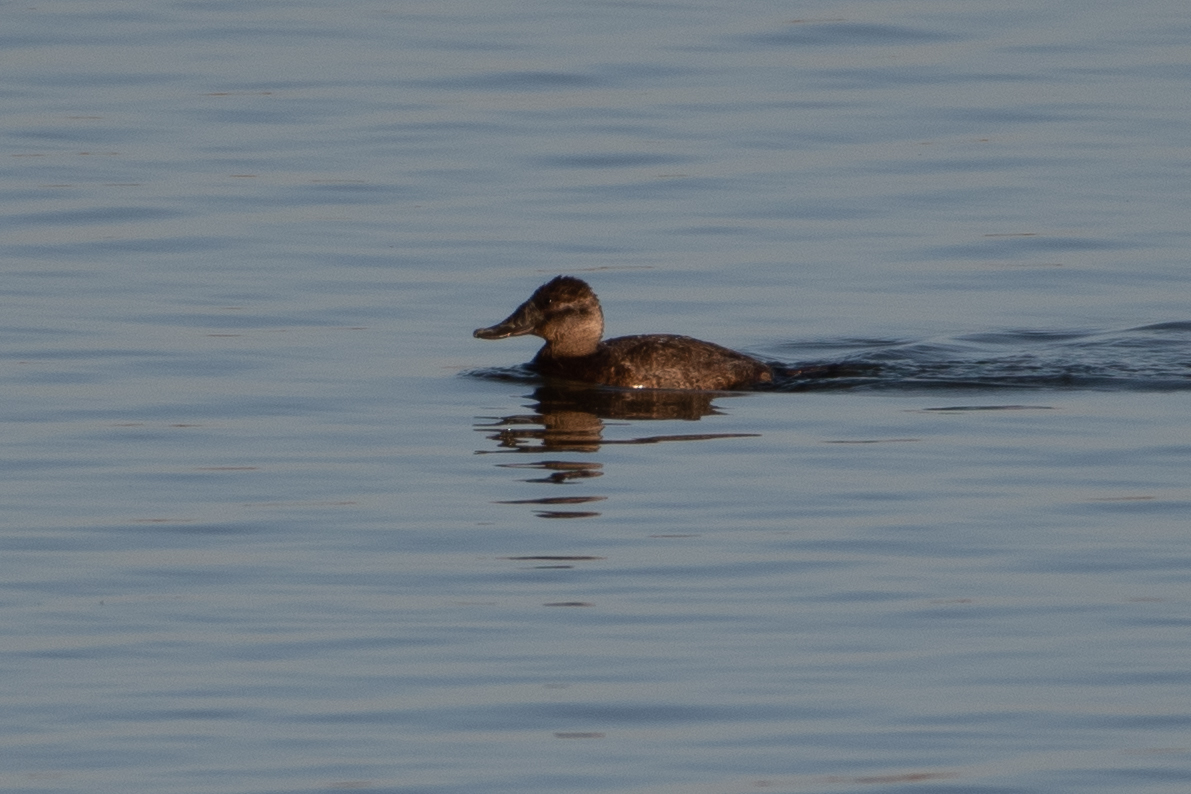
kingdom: Animalia
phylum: Chordata
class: Aves
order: Anseriformes
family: Anatidae
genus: Oxyura
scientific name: Oxyura jamaicensis
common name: Ruddy duck
